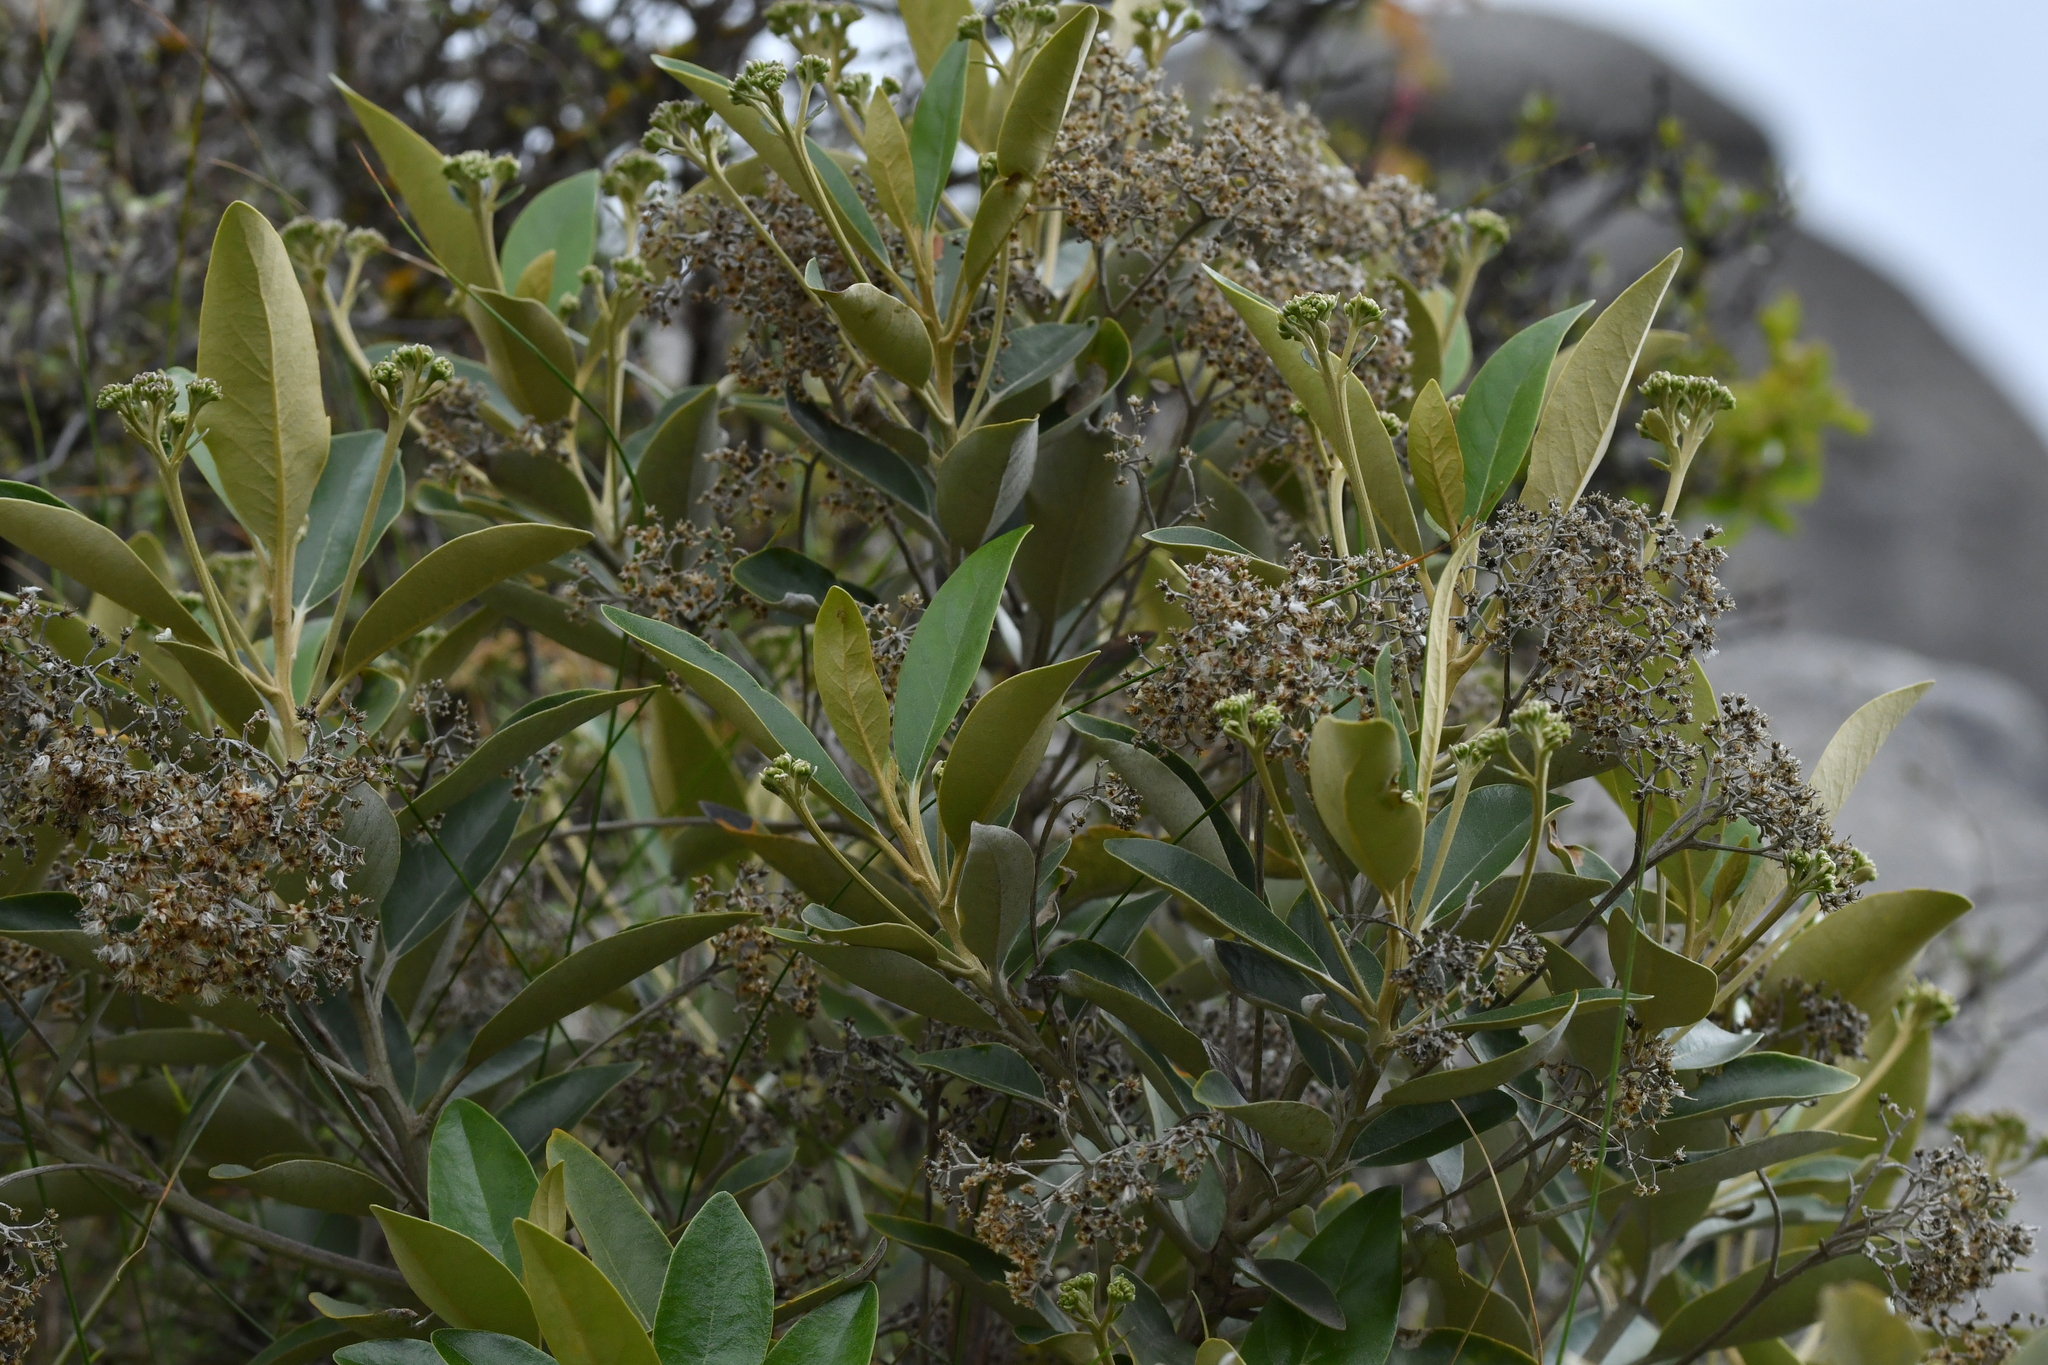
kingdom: Plantae
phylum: Tracheophyta
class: Magnoliopsida
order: Asterales
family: Asteraceae
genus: Olearia
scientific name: Olearia avicenniifolia
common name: Mangrove-leaf daisybush
